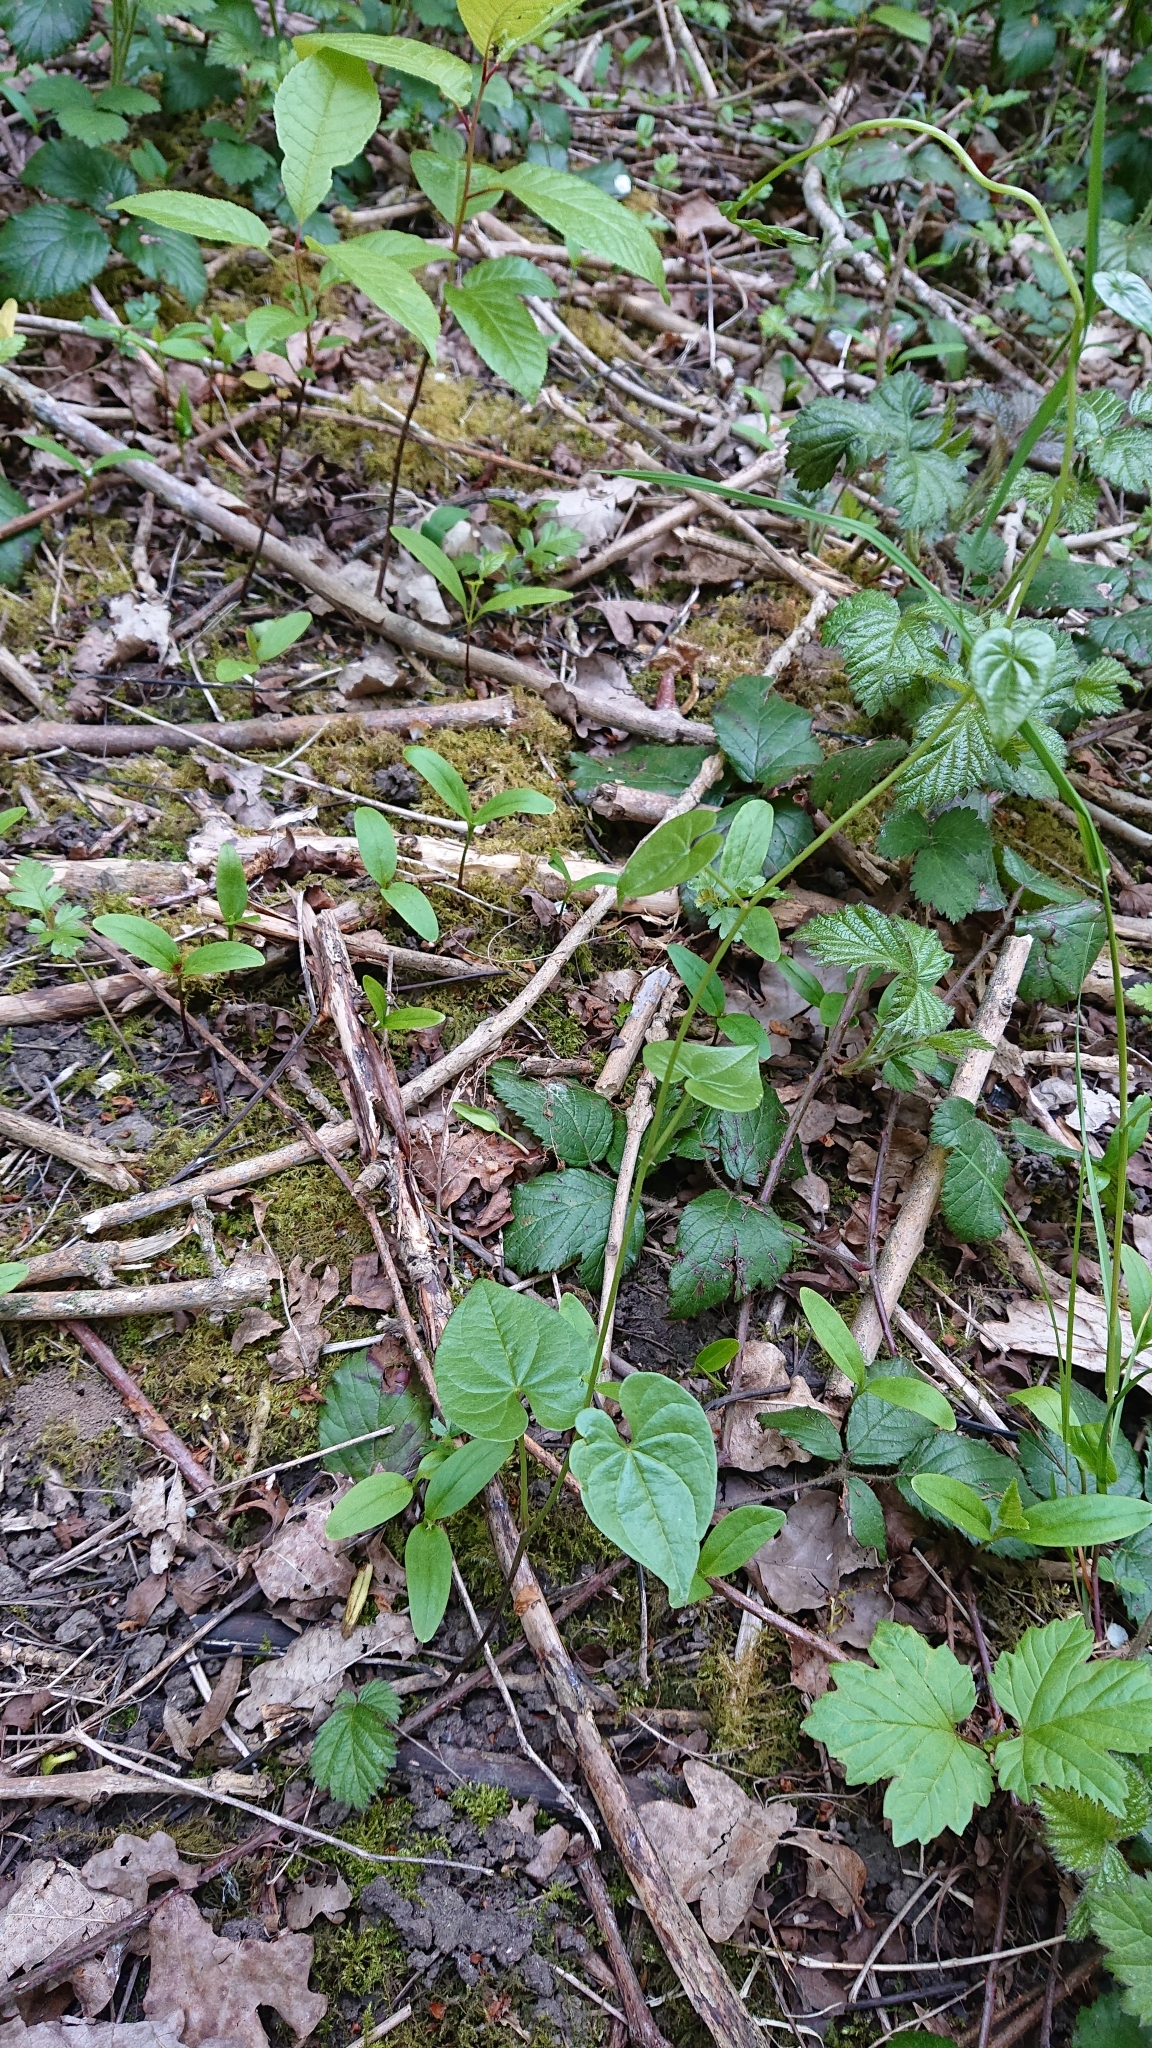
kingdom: Plantae
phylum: Tracheophyta
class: Liliopsida
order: Dioscoreales
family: Dioscoreaceae
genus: Dioscorea
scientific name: Dioscorea communis
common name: Black-bindweed
